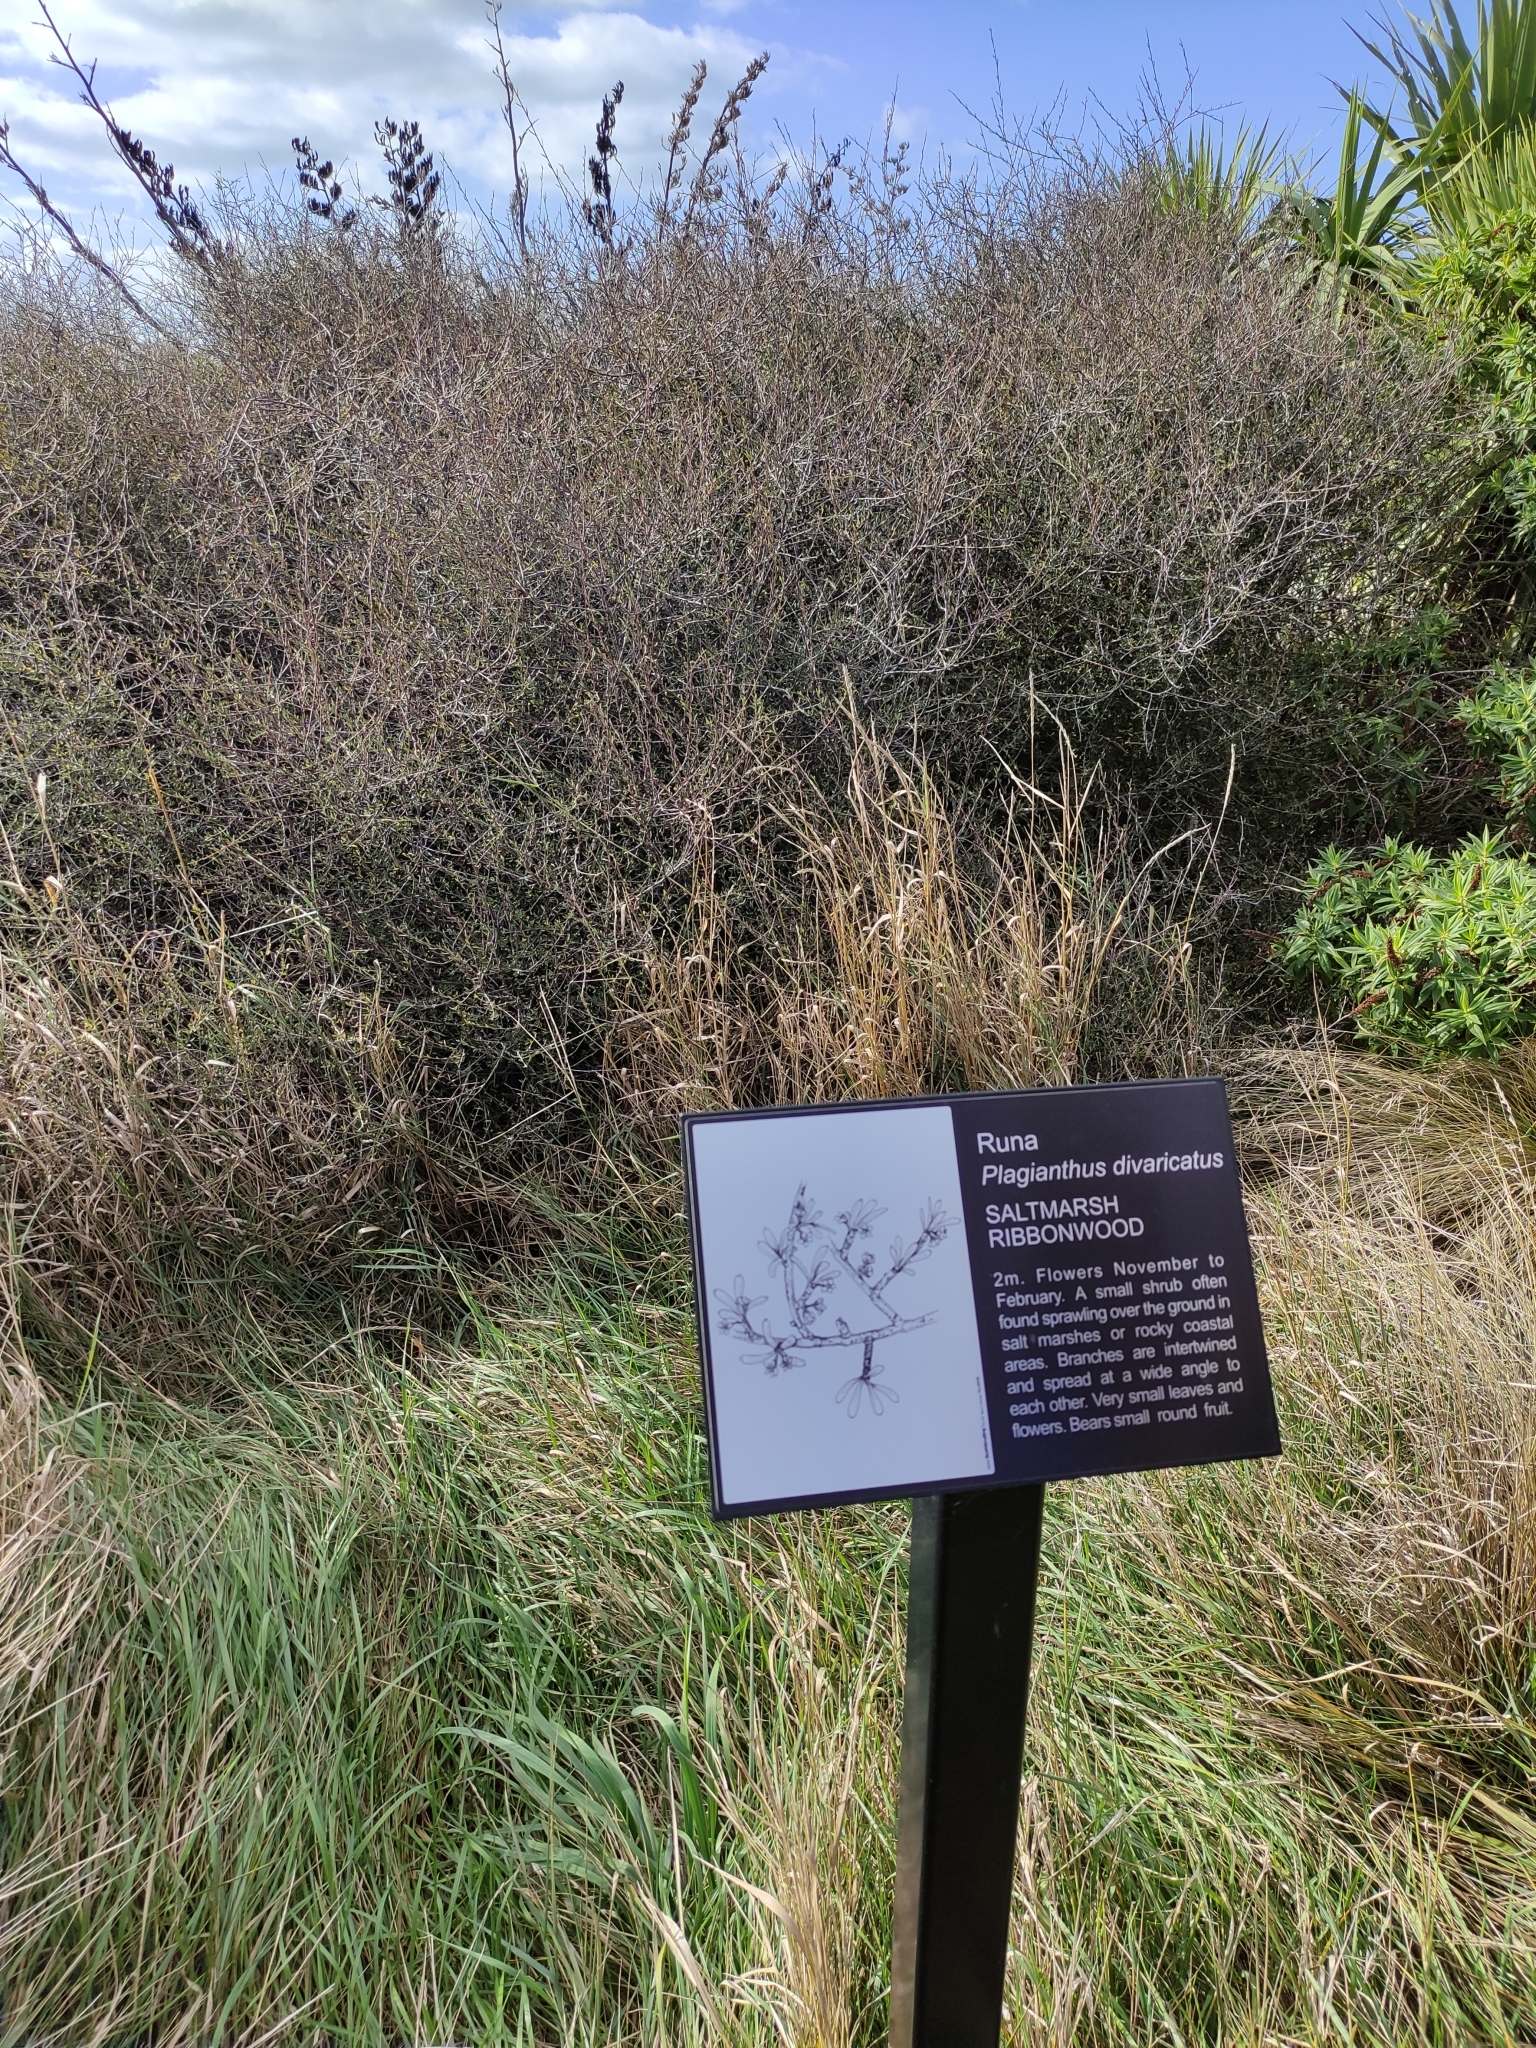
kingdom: Plantae
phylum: Tracheophyta
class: Magnoliopsida
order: Malvales
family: Malvaceae
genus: Plagianthus
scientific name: Plagianthus divaricatus
